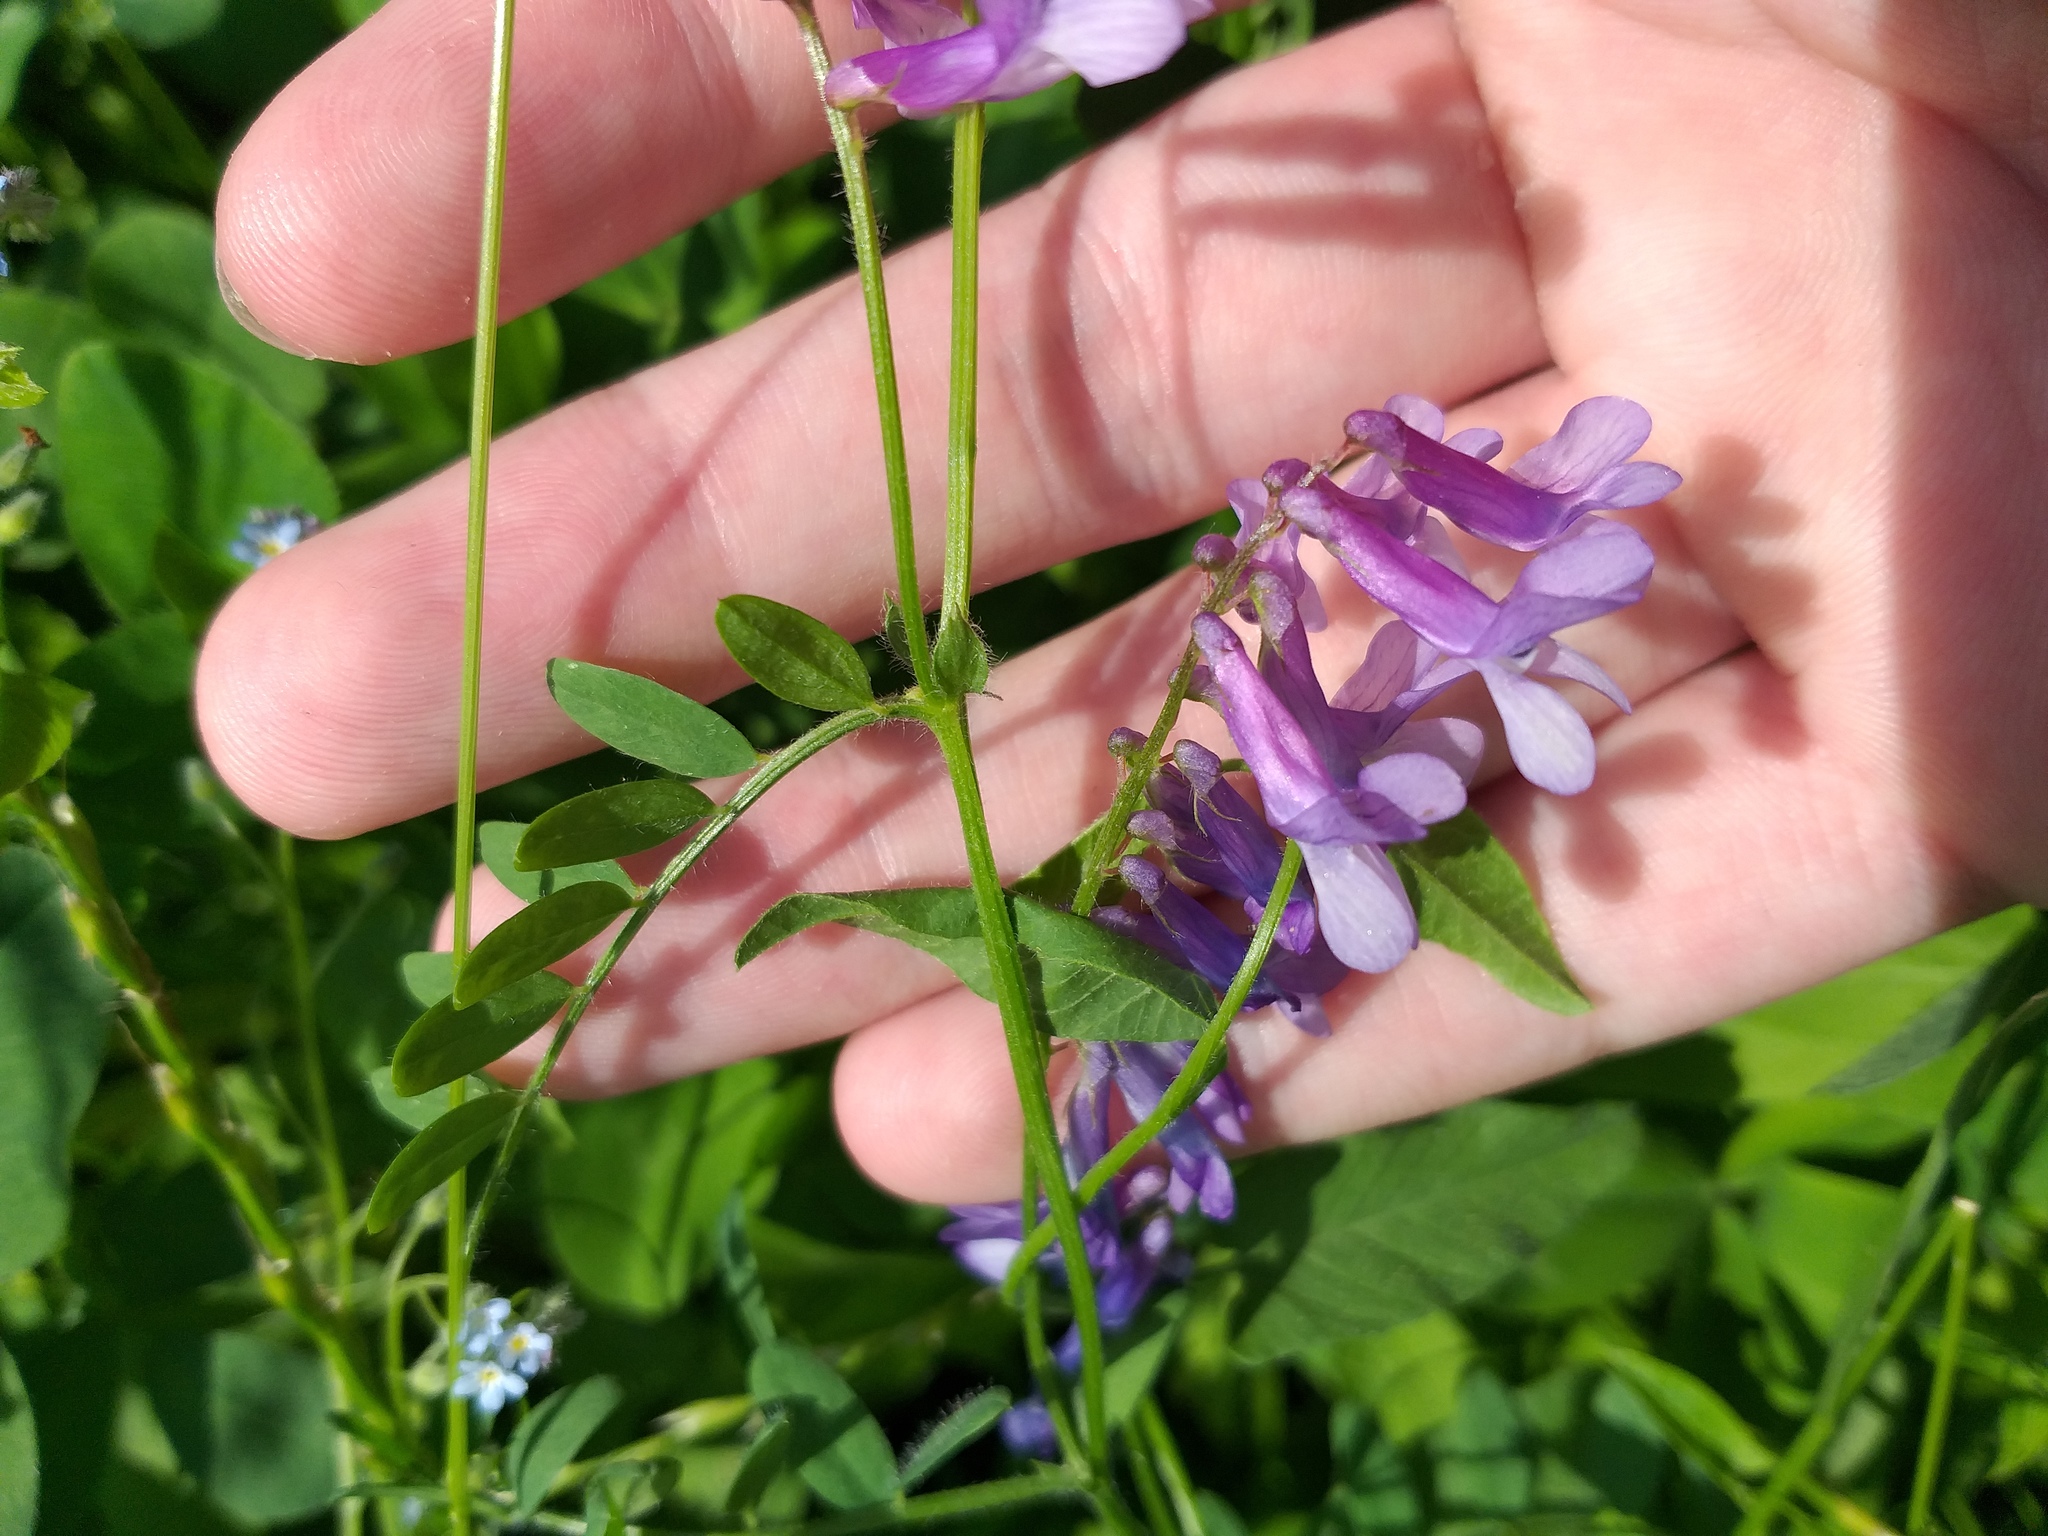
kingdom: Plantae
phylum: Tracheophyta
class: Magnoliopsida
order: Fabales
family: Fabaceae
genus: Vicia
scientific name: Vicia villosa
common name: Fodder vetch
